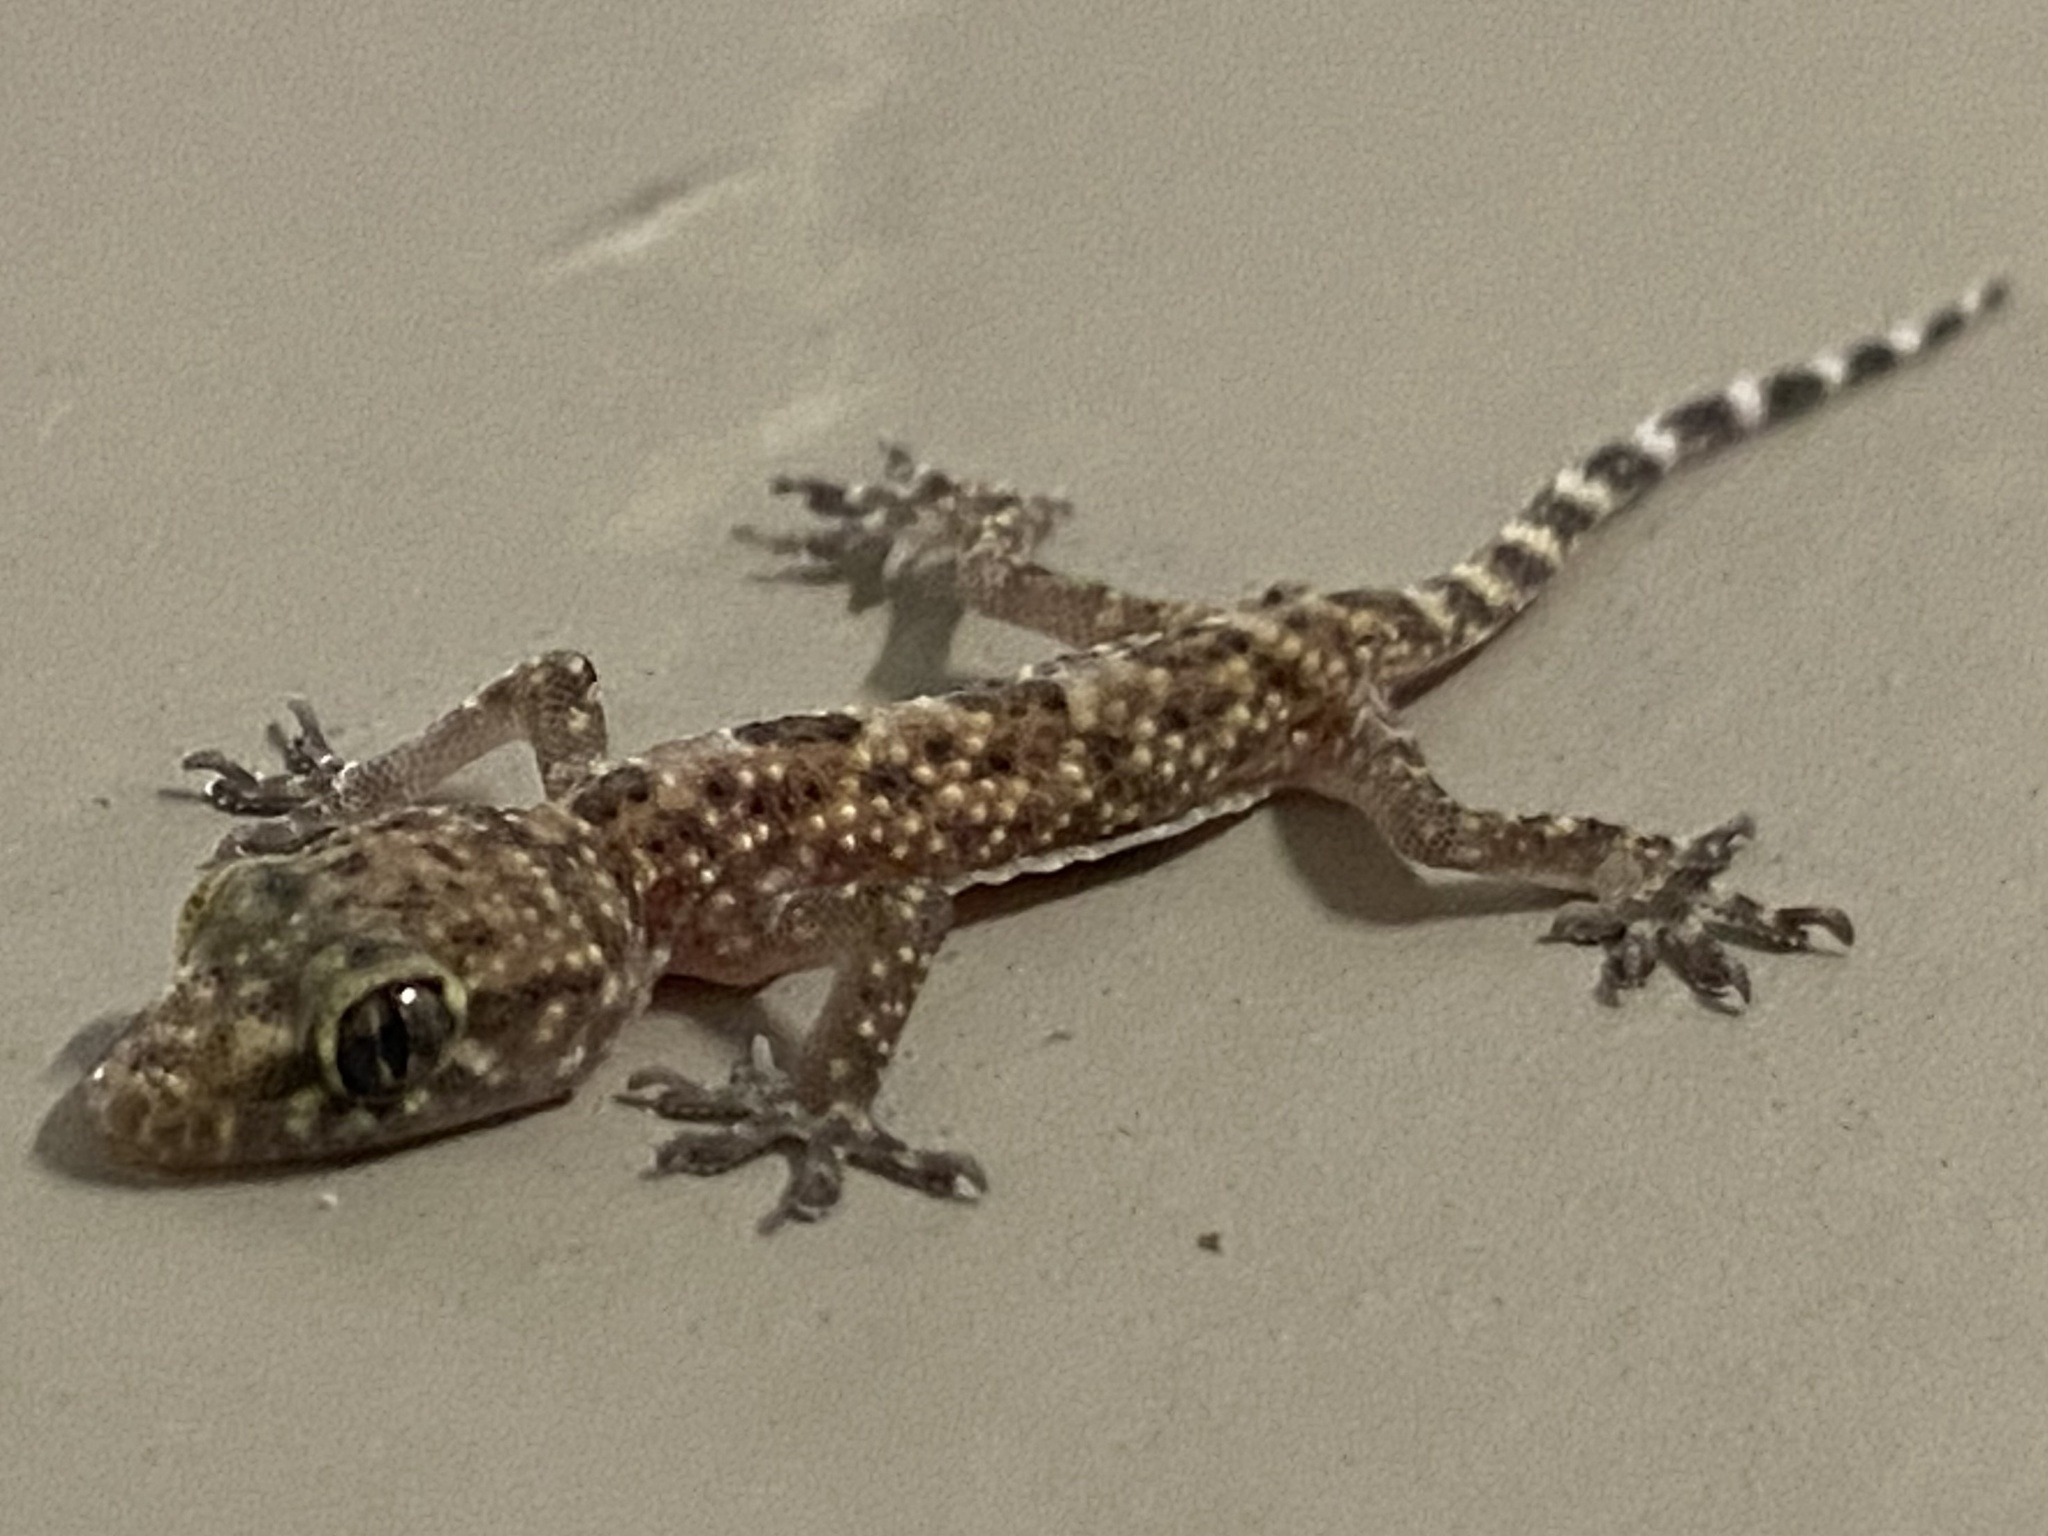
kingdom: Animalia
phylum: Chordata
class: Squamata
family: Gekkonidae
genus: Hemidactylus
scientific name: Hemidactylus turcicus
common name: Turkish gecko
